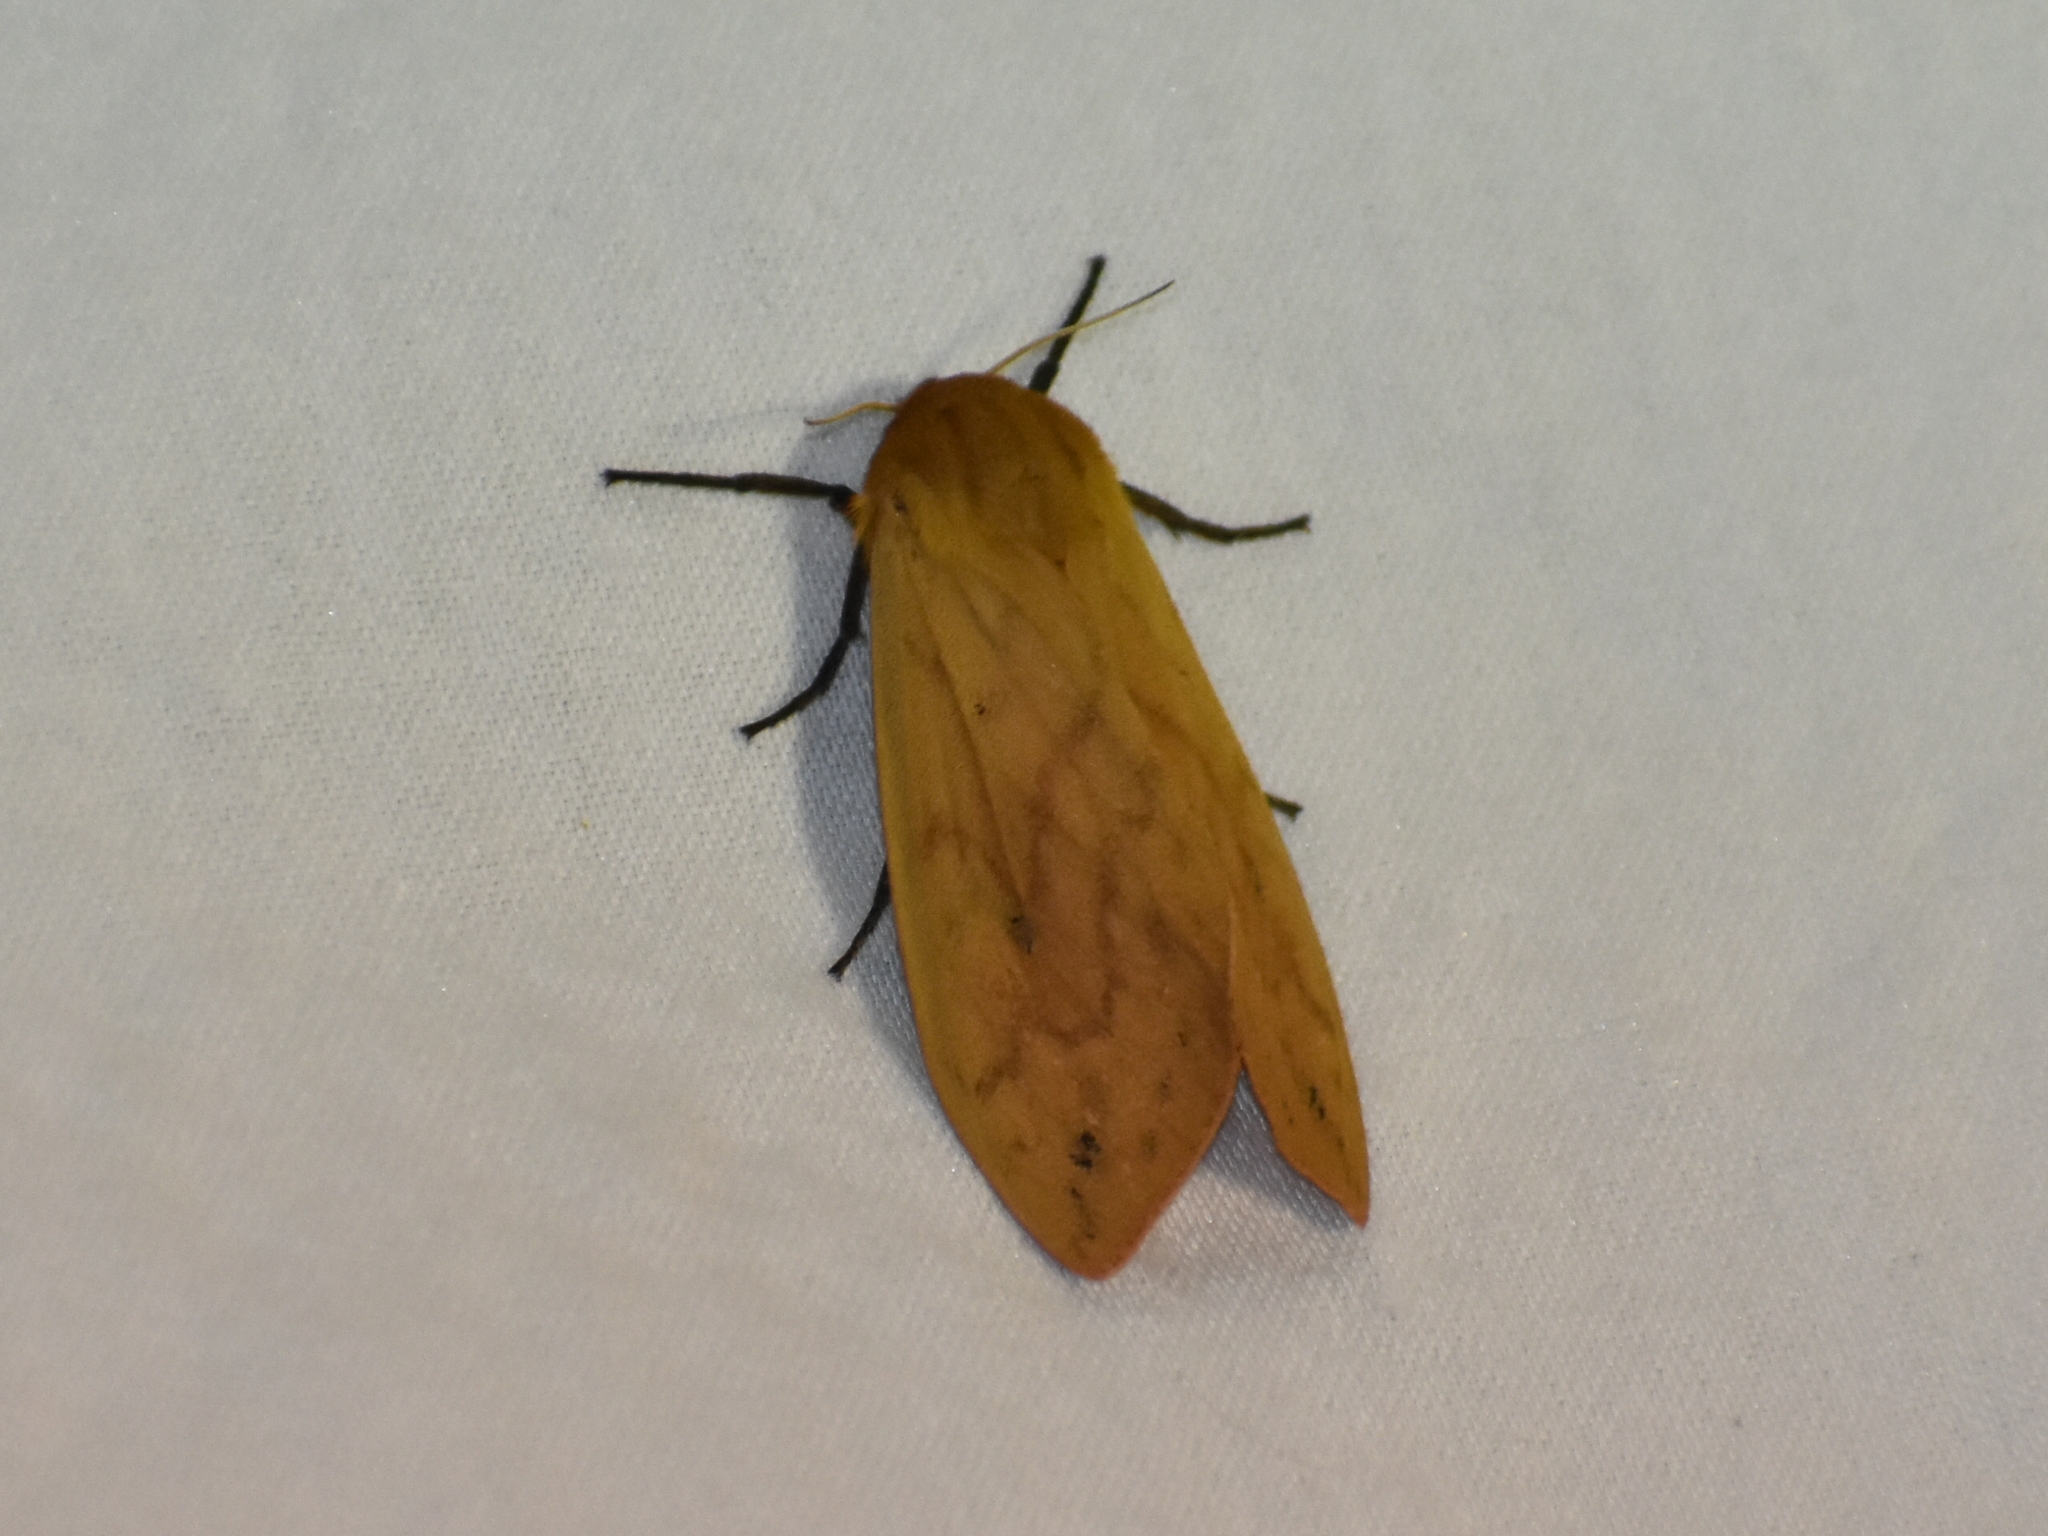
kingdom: Animalia
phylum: Arthropoda
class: Insecta
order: Lepidoptera
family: Erebidae
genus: Pyrrharctia
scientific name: Pyrrharctia isabella
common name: Isabella tiger moth
